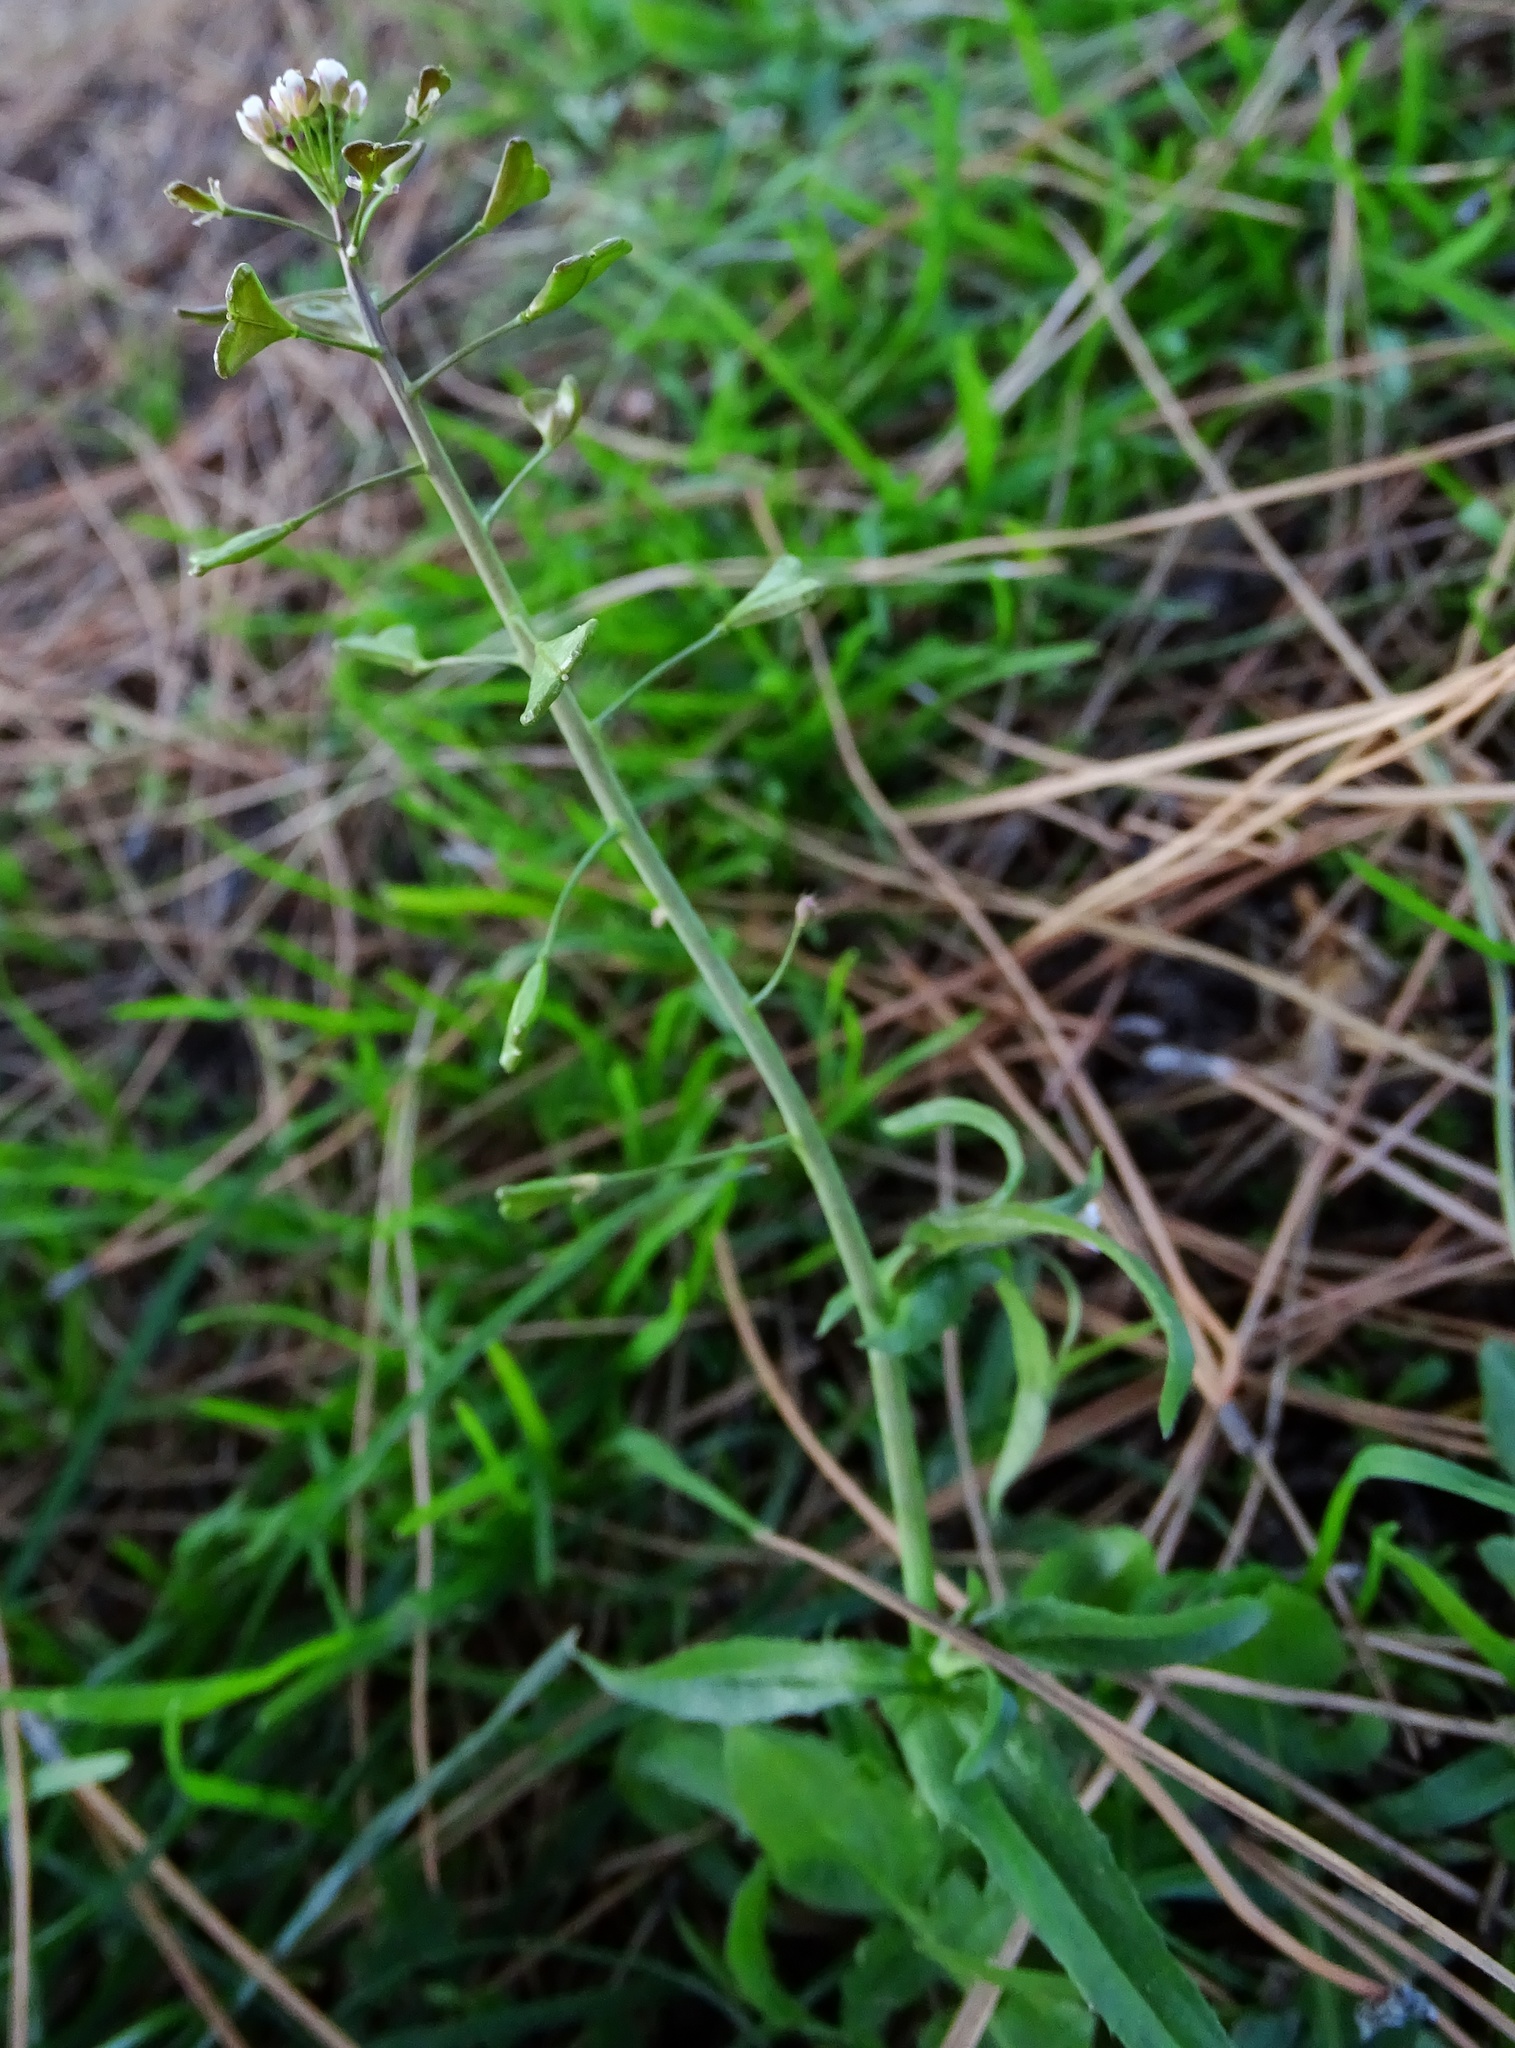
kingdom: Plantae
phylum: Tracheophyta
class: Magnoliopsida
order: Brassicales
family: Brassicaceae
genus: Capsella
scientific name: Capsella bursa-pastoris
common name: Shepherd's purse
